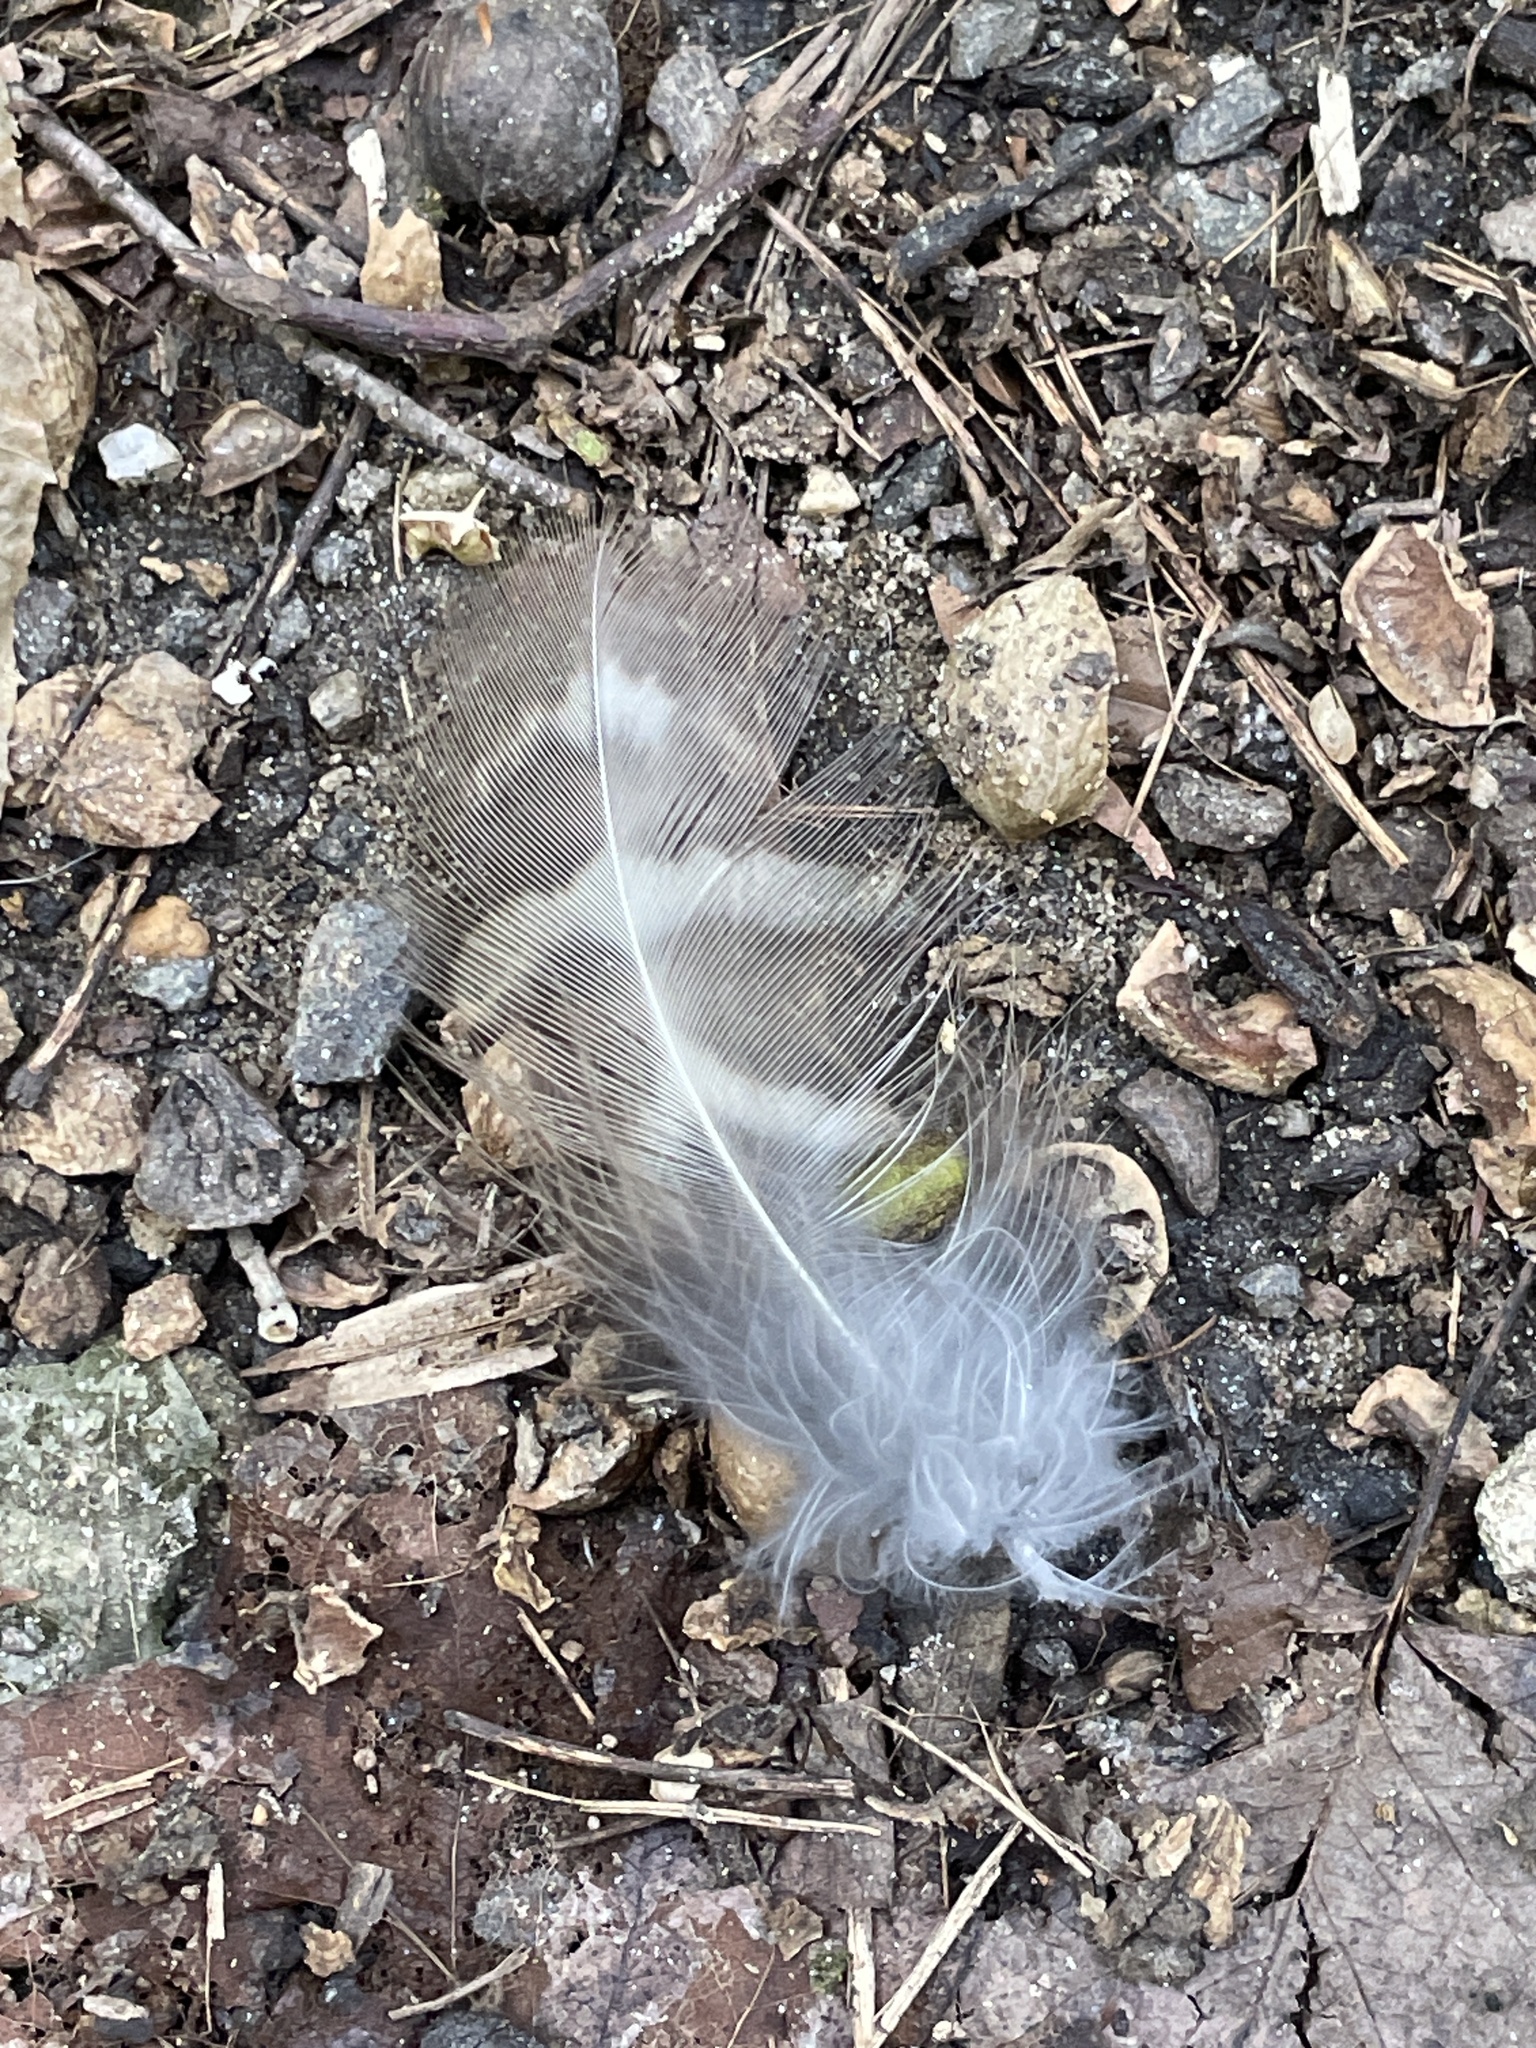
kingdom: Animalia
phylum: Chordata
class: Aves
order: Strigiformes
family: Strigidae
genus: Strix
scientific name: Strix varia
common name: Barred owl
